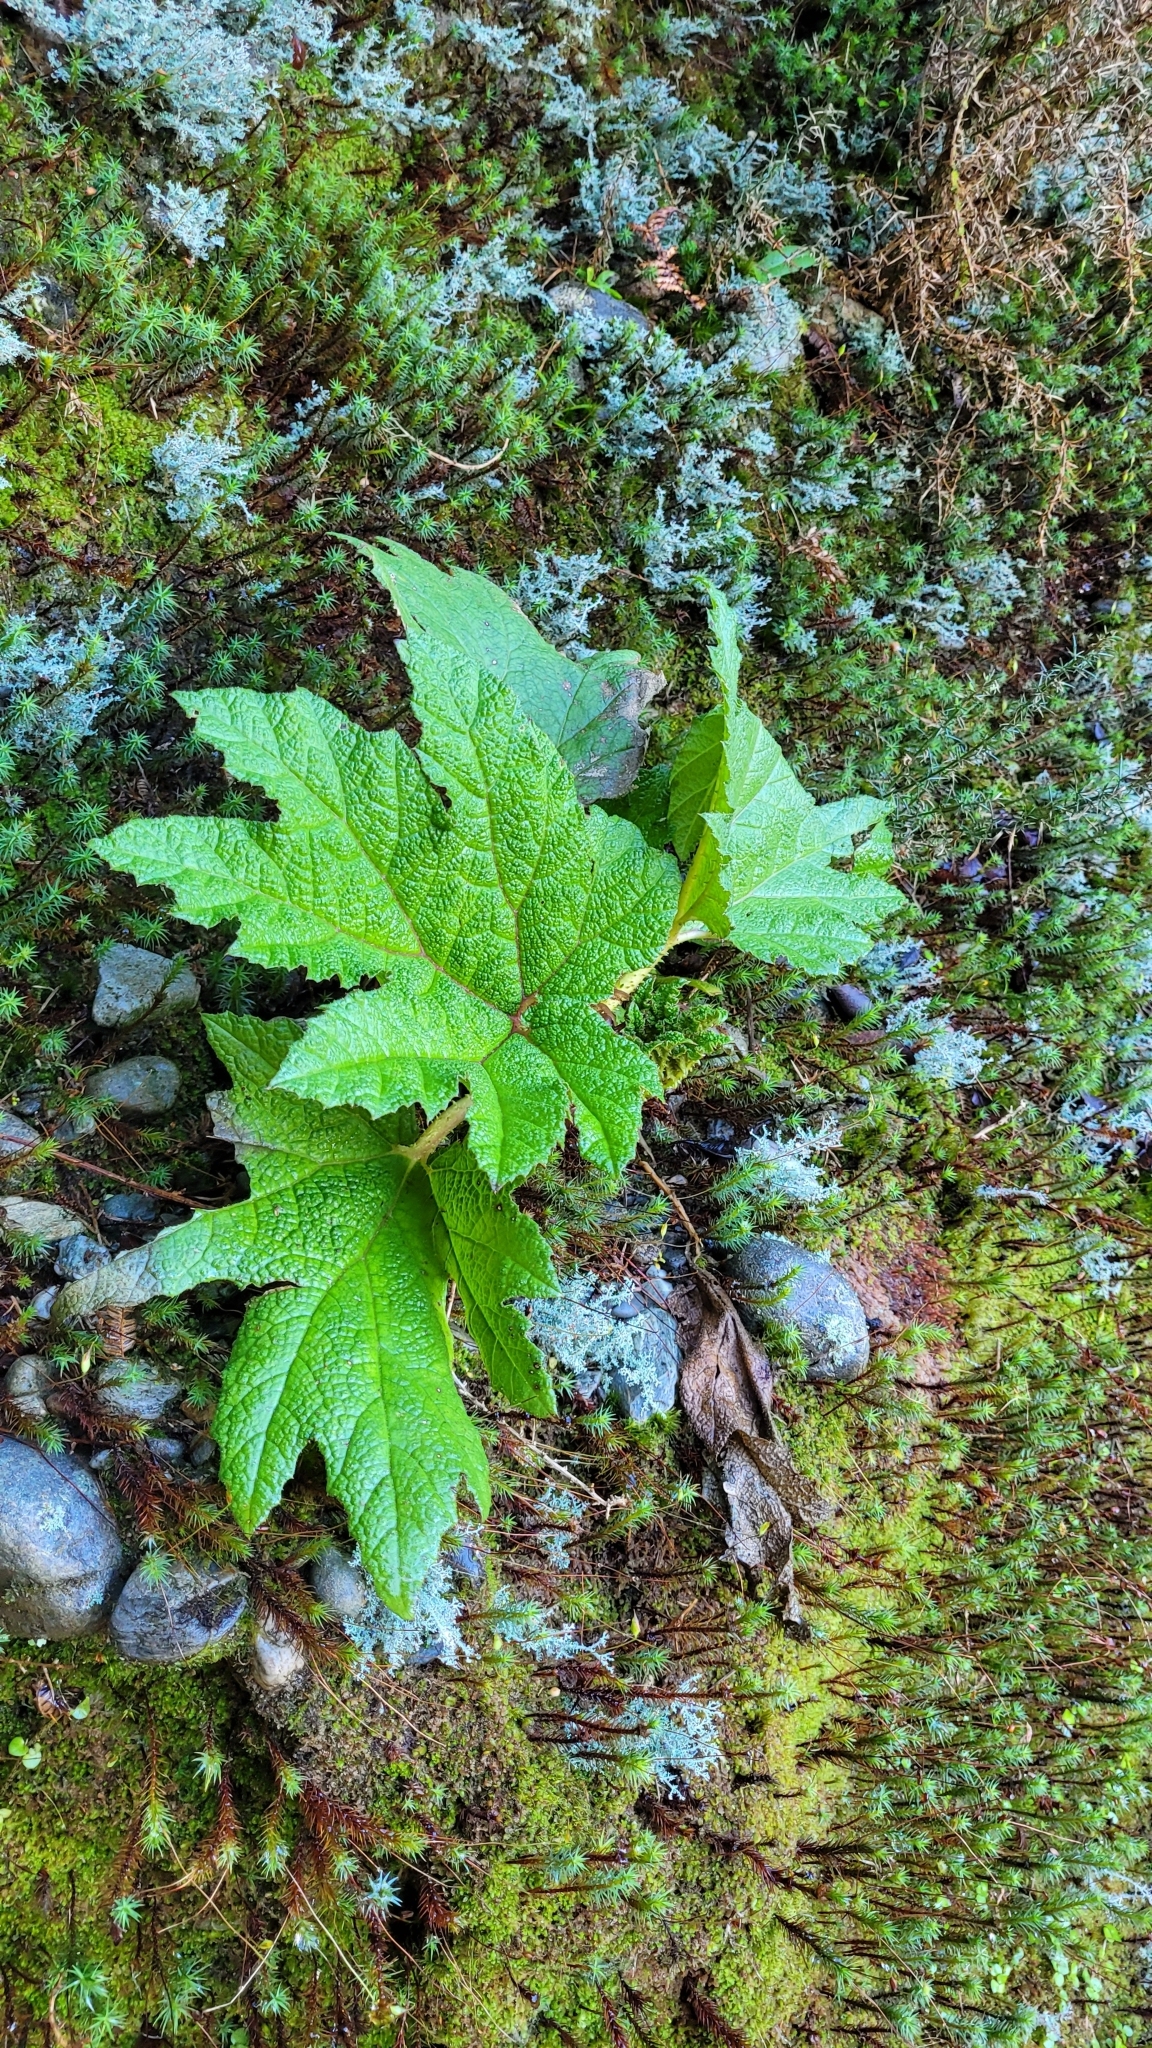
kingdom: Plantae
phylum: Tracheophyta
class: Magnoliopsida
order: Gunnerales
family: Gunneraceae
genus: Gunnera
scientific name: Gunnera tinctoria
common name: Giant-rhubarb
